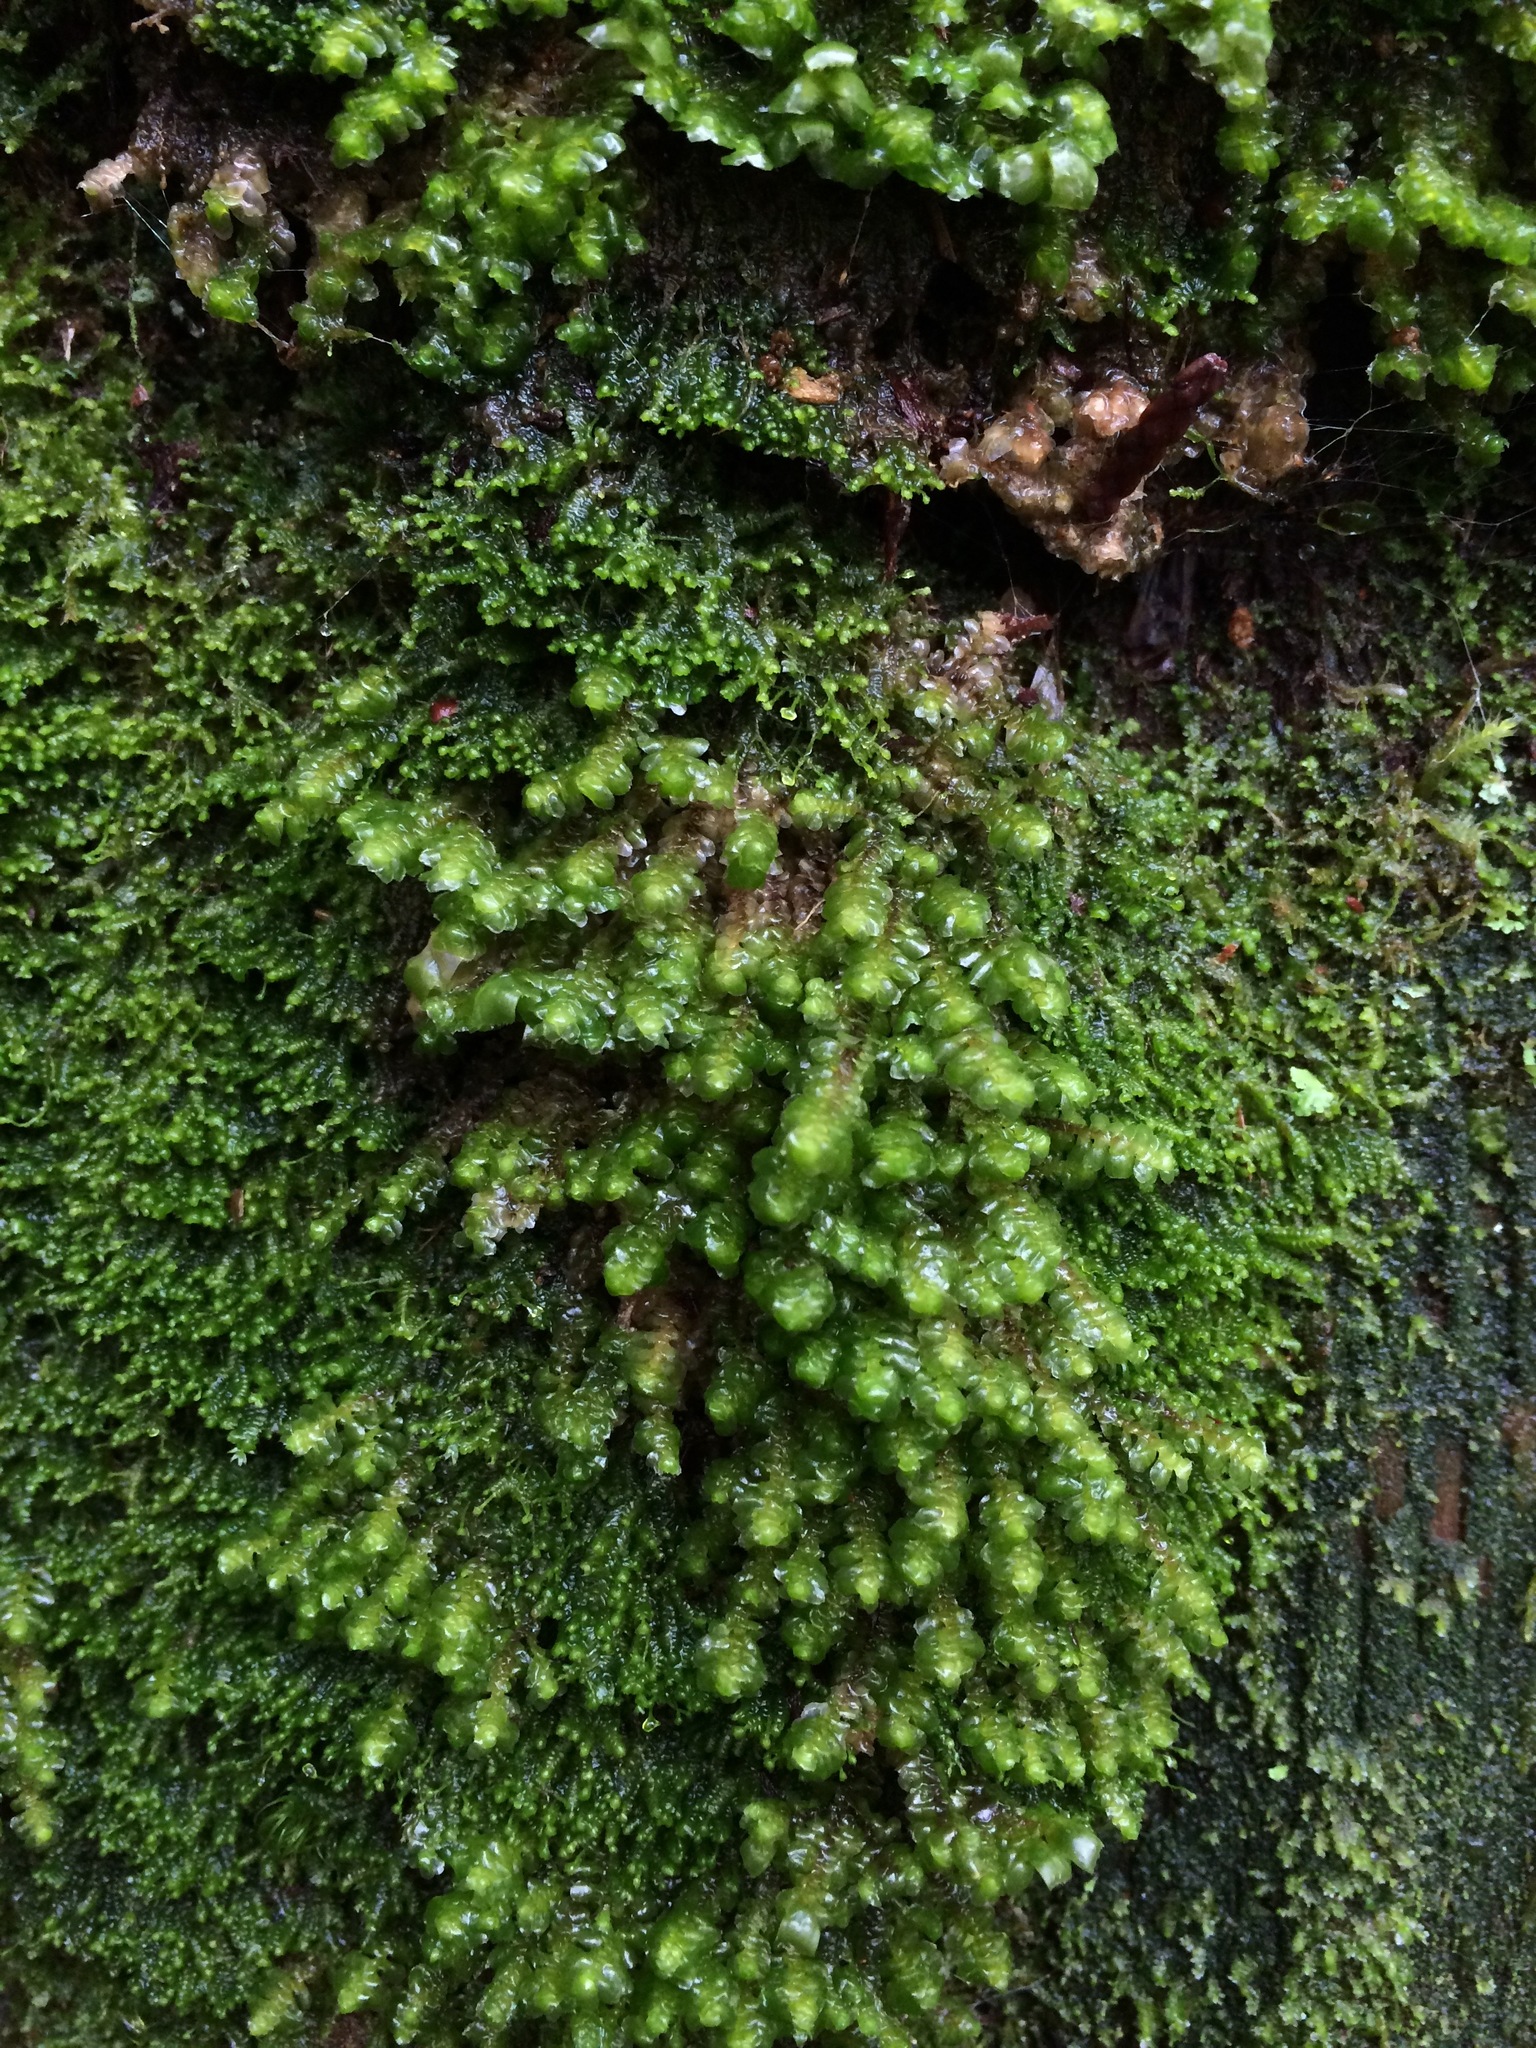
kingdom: Plantae
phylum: Marchantiophyta
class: Jungermanniopsida
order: Jungermanniales
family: Scapaniaceae
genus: Scapania
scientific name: Scapania bolanderi
